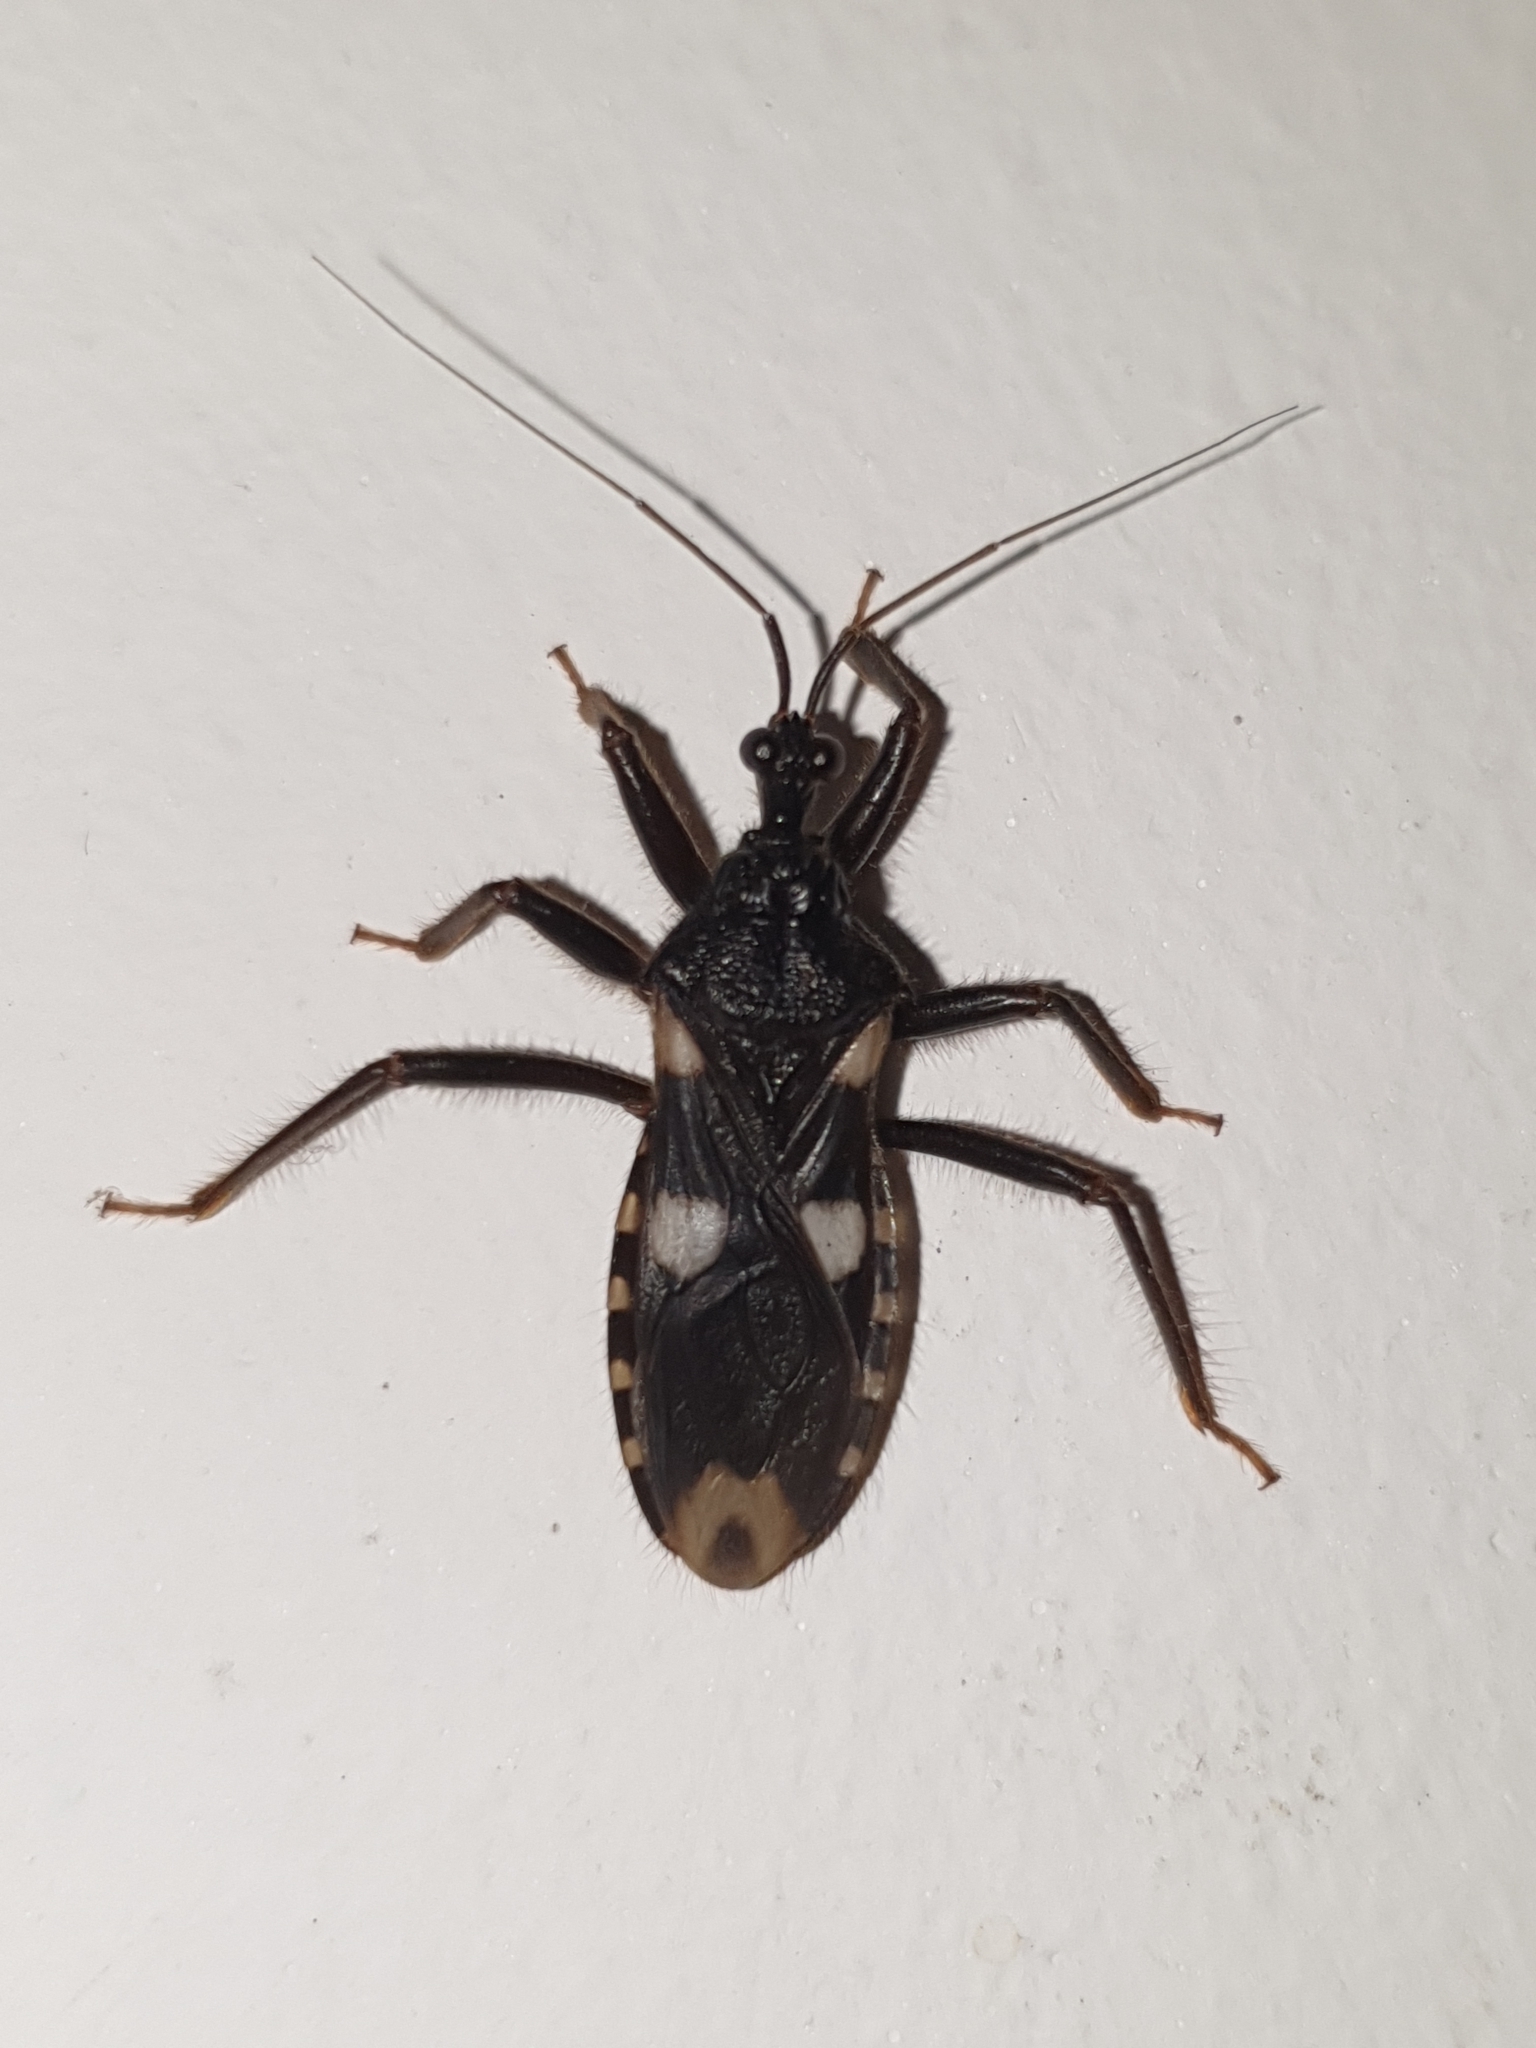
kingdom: Animalia
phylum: Arthropoda
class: Insecta
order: Hemiptera
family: Reduviidae
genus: Acanthaspis
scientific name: Acanthaspis siva
